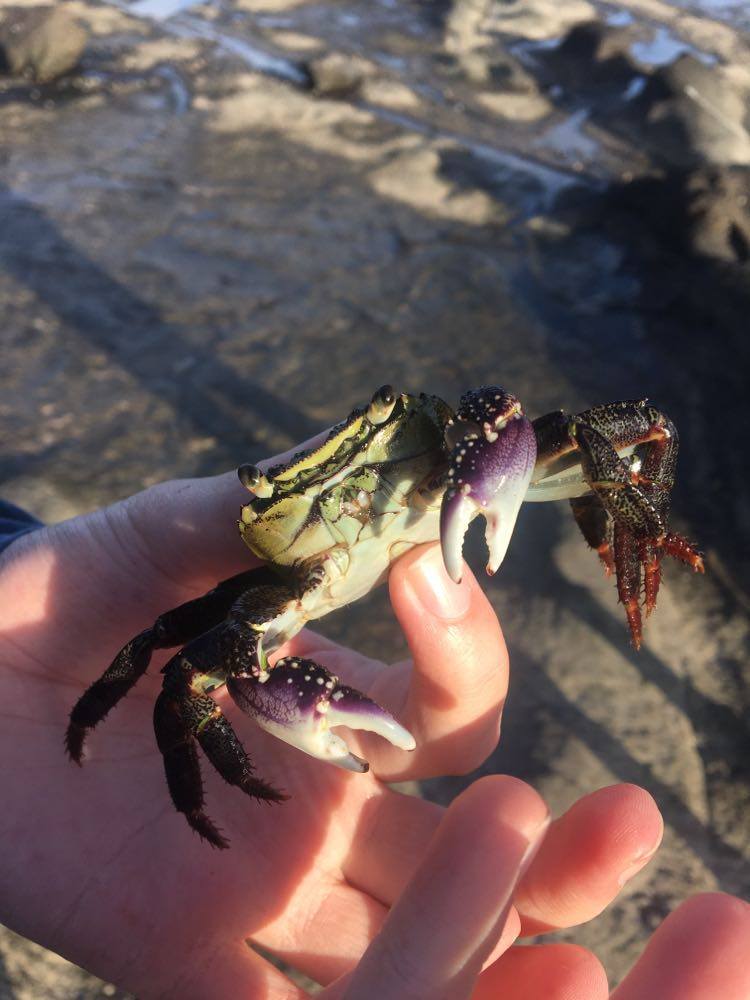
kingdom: Animalia
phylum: Arthropoda
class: Malacostraca
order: Decapoda
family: Grapsidae
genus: Leptograpsus
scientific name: Leptograpsus variegatus
